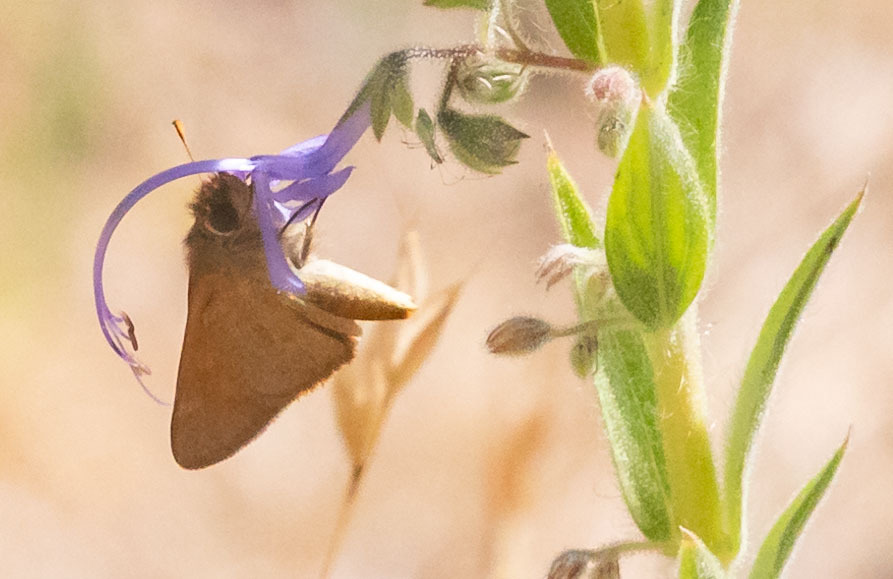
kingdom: Animalia
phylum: Arthropoda
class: Insecta
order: Lepidoptera
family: Hesperiidae
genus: Ochlodes
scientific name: Ochlodes sylvanoides
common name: Woodland skipper
